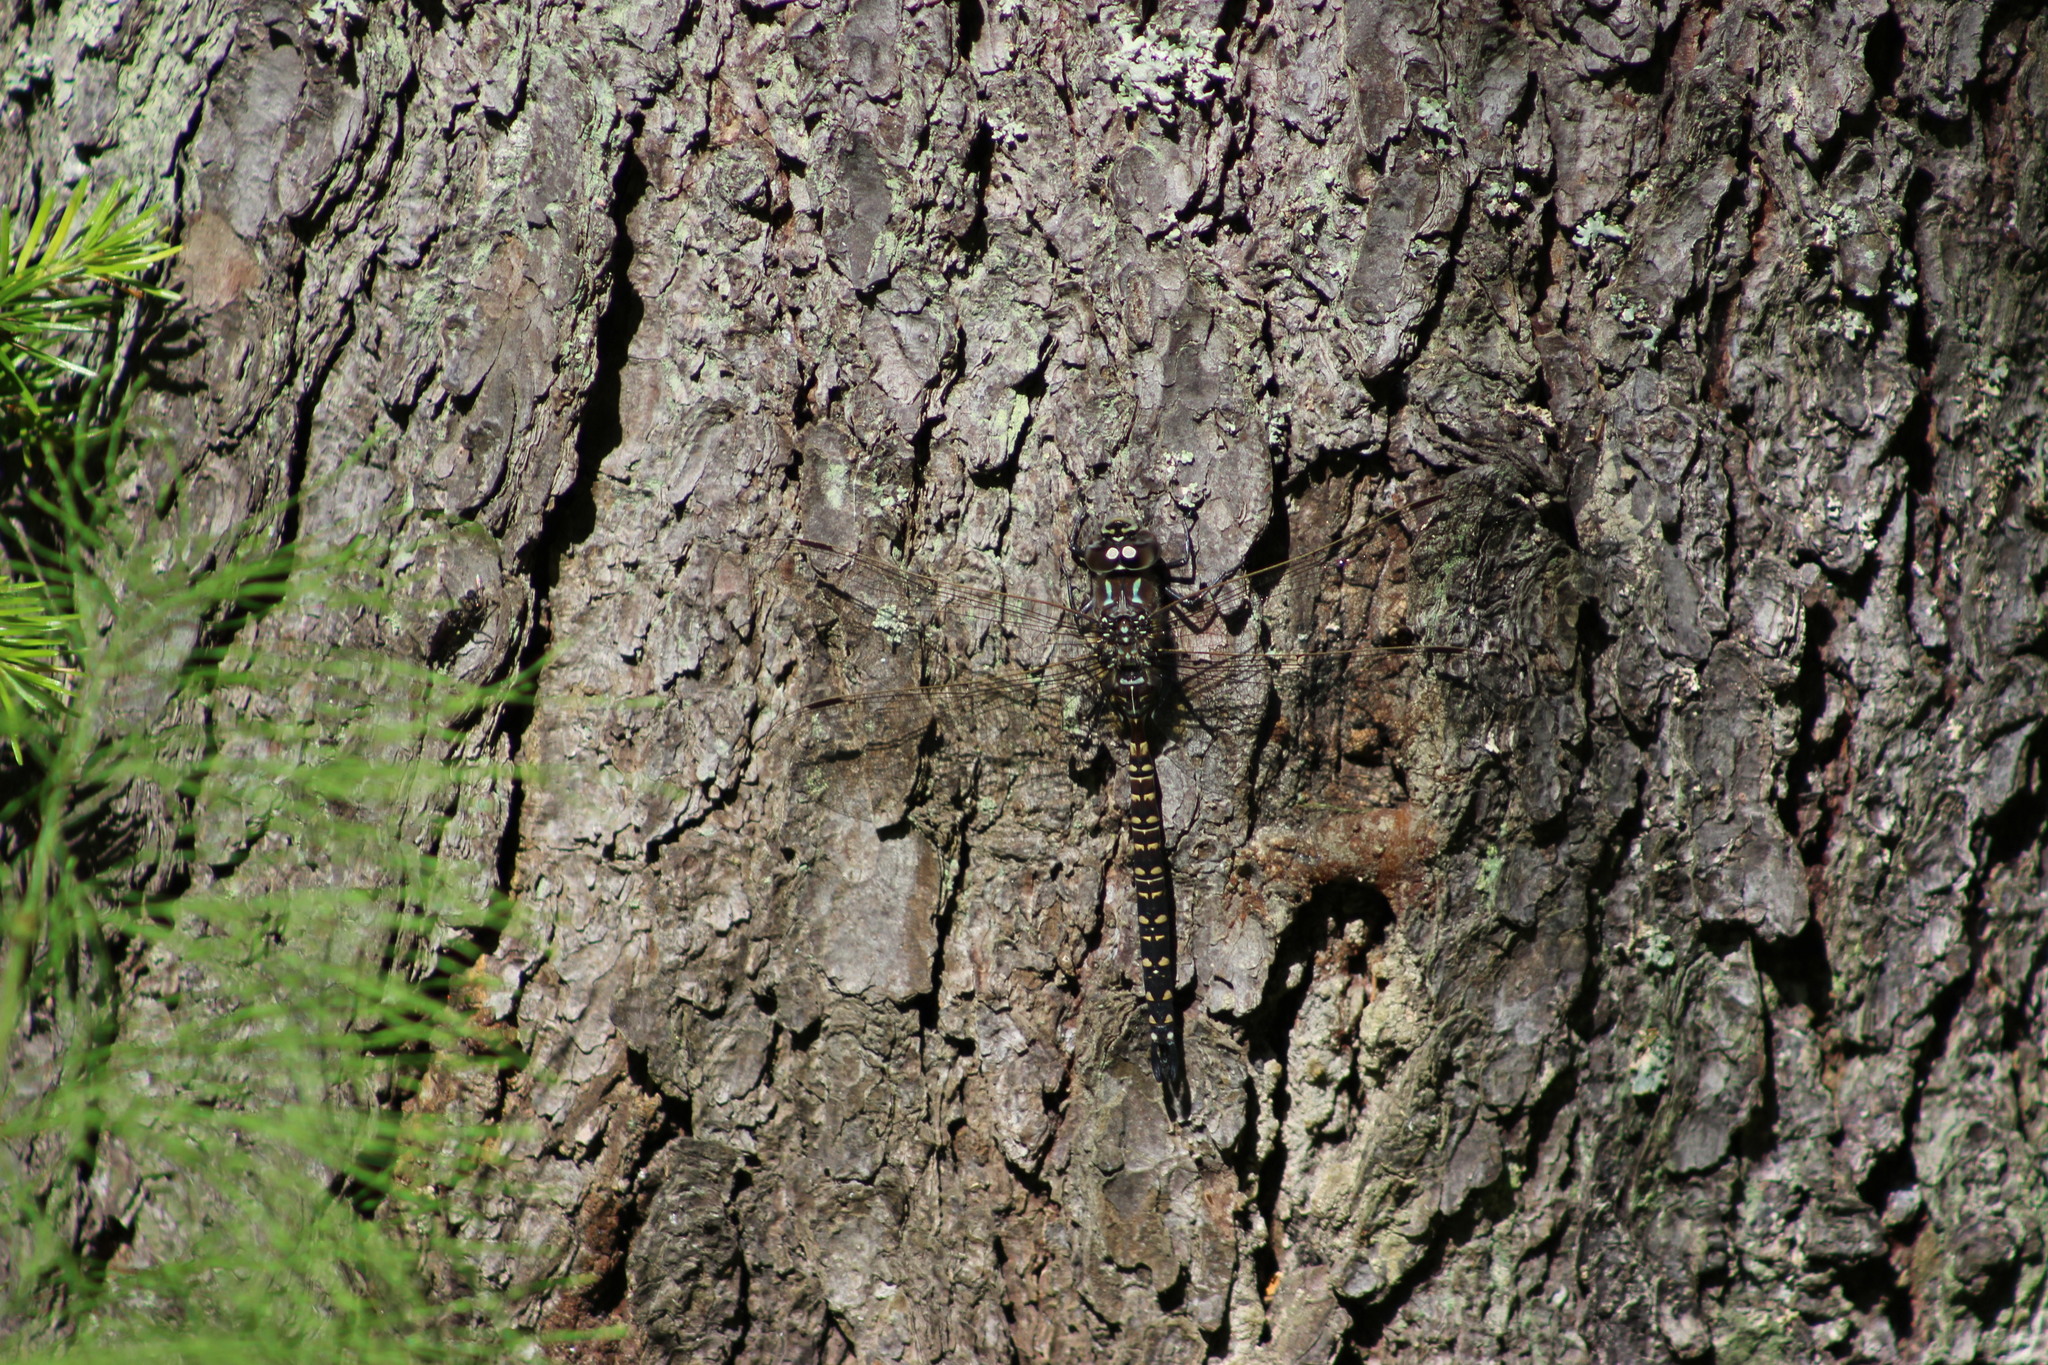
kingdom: Animalia
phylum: Arthropoda
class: Insecta
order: Odonata
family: Aeshnidae
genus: Aeshna
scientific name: Aeshna subarctica
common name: Subarctic darner
